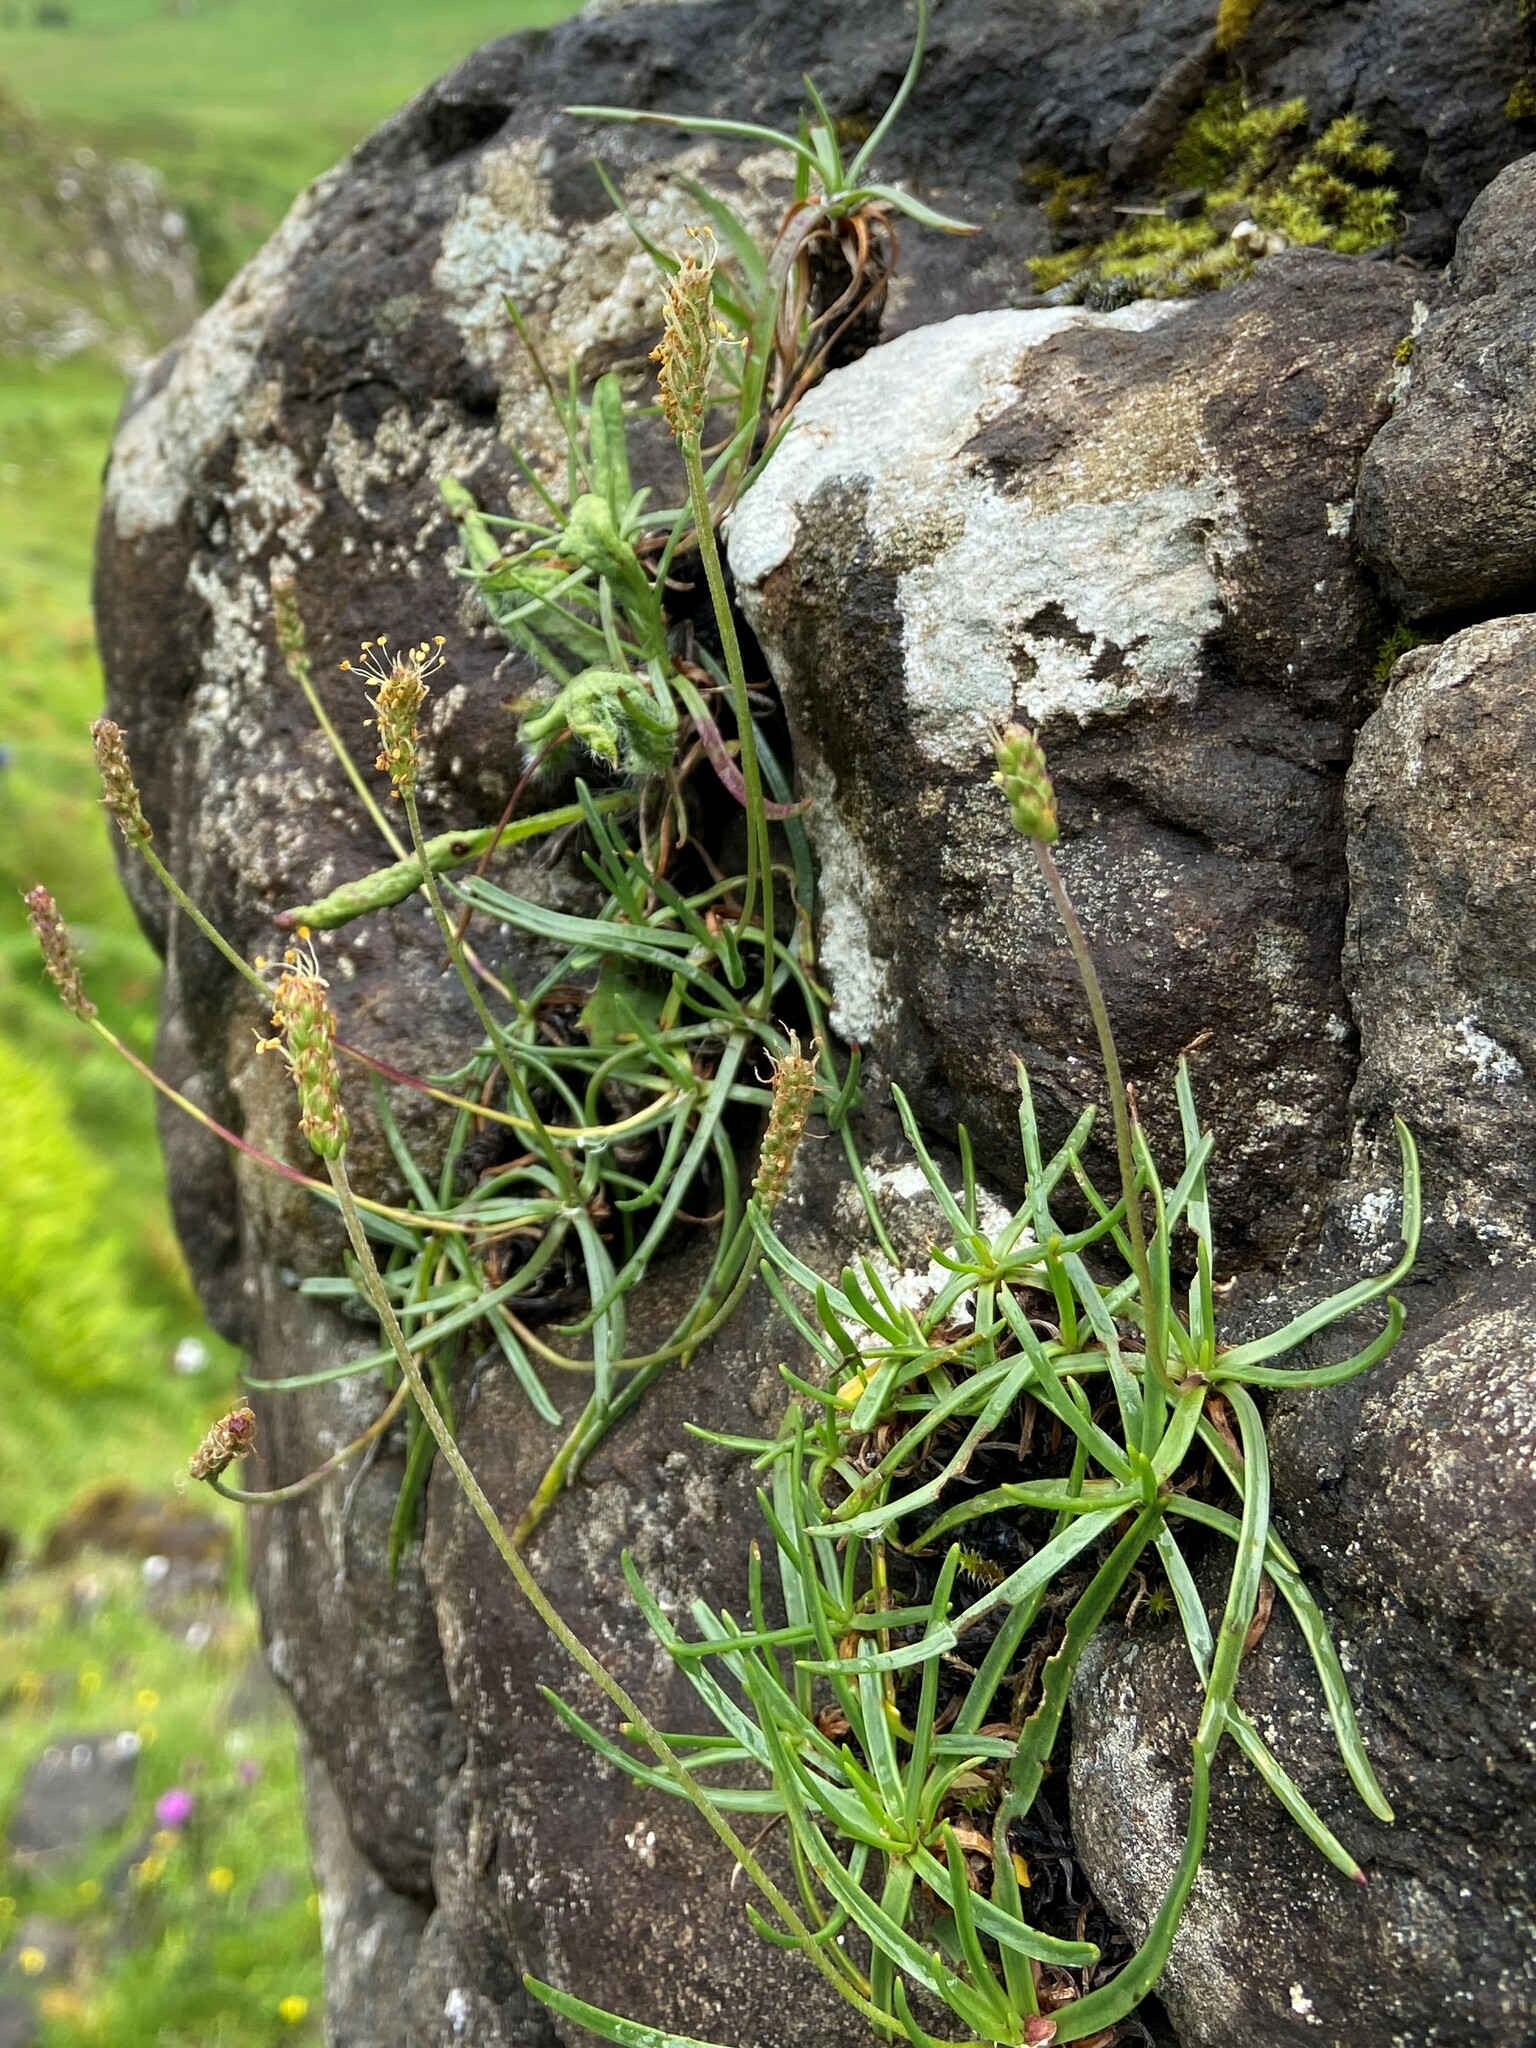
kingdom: Plantae
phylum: Tracheophyta
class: Magnoliopsida
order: Lamiales
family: Plantaginaceae
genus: Plantago
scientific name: Plantago maritima
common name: Sea plantain
